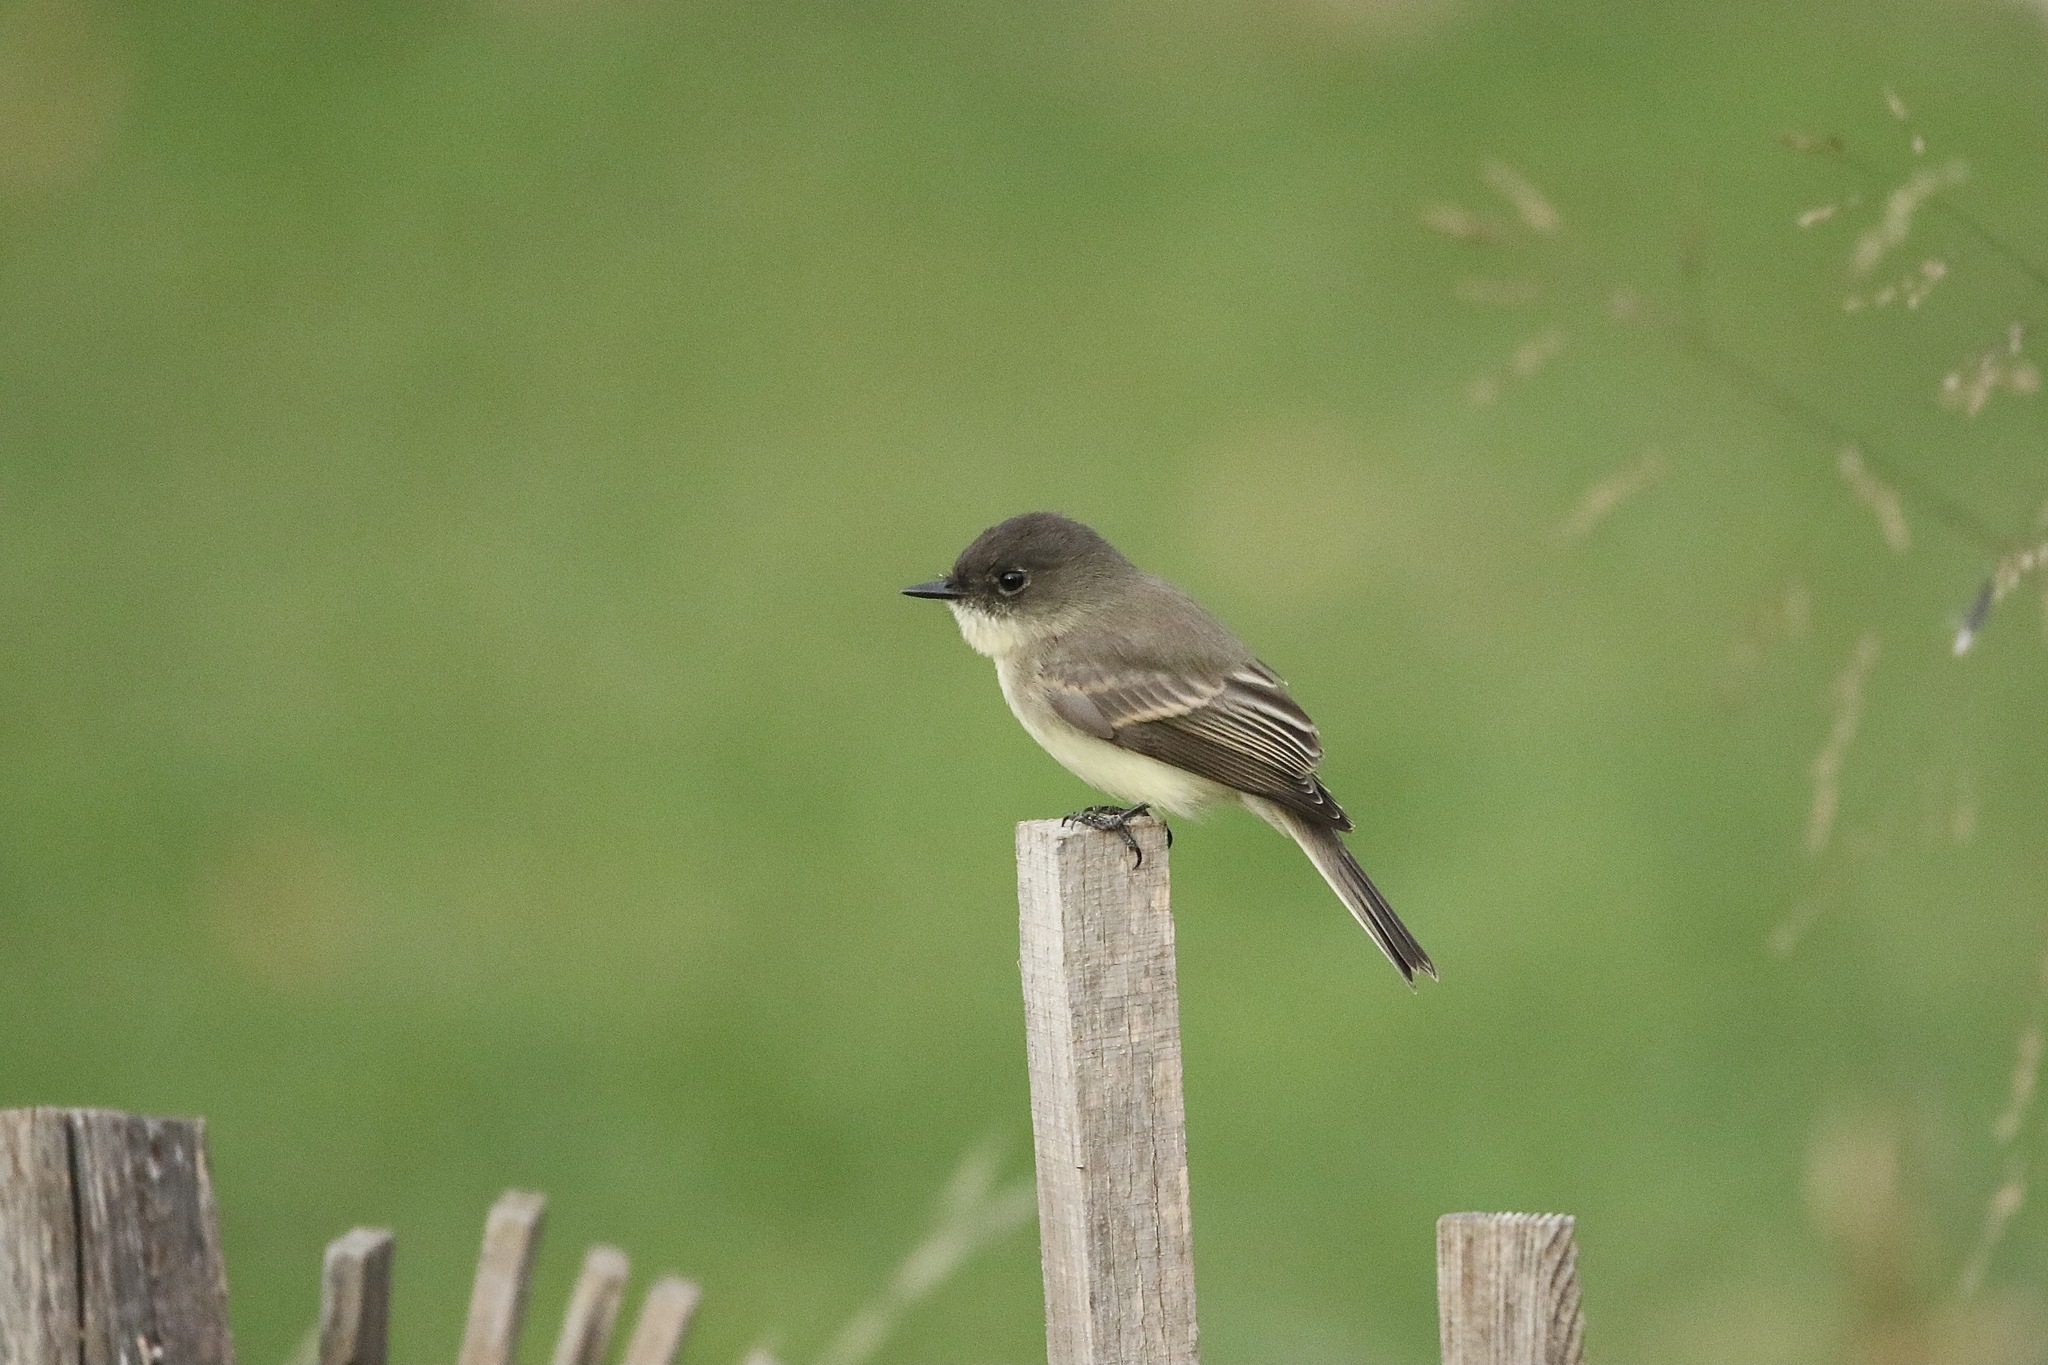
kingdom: Animalia
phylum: Chordata
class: Aves
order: Passeriformes
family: Tyrannidae
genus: Sayornis
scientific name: Sayornis phoebe
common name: Eastern phoebe
